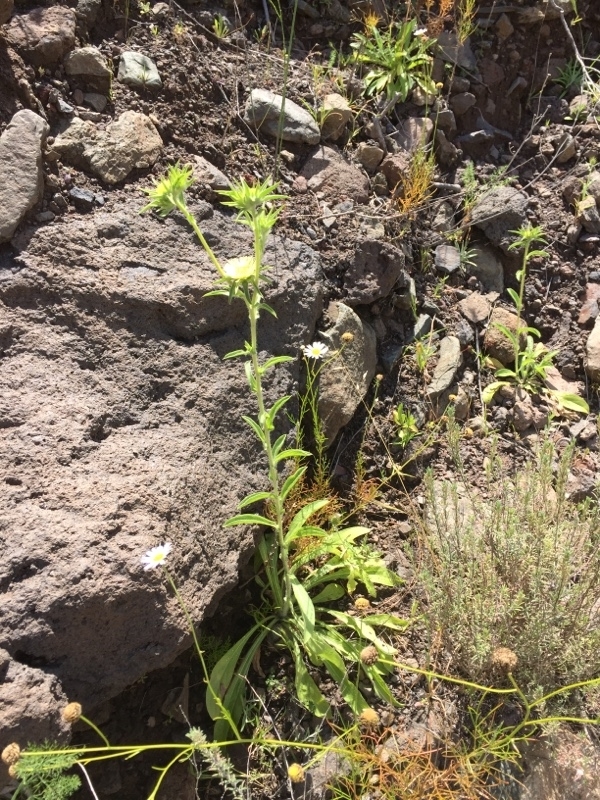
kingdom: Plantae
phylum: Tracheophyta
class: Magnoliopsida
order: Asterales
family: Asteraceae
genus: Pallenis
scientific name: Pallenis spinosa
